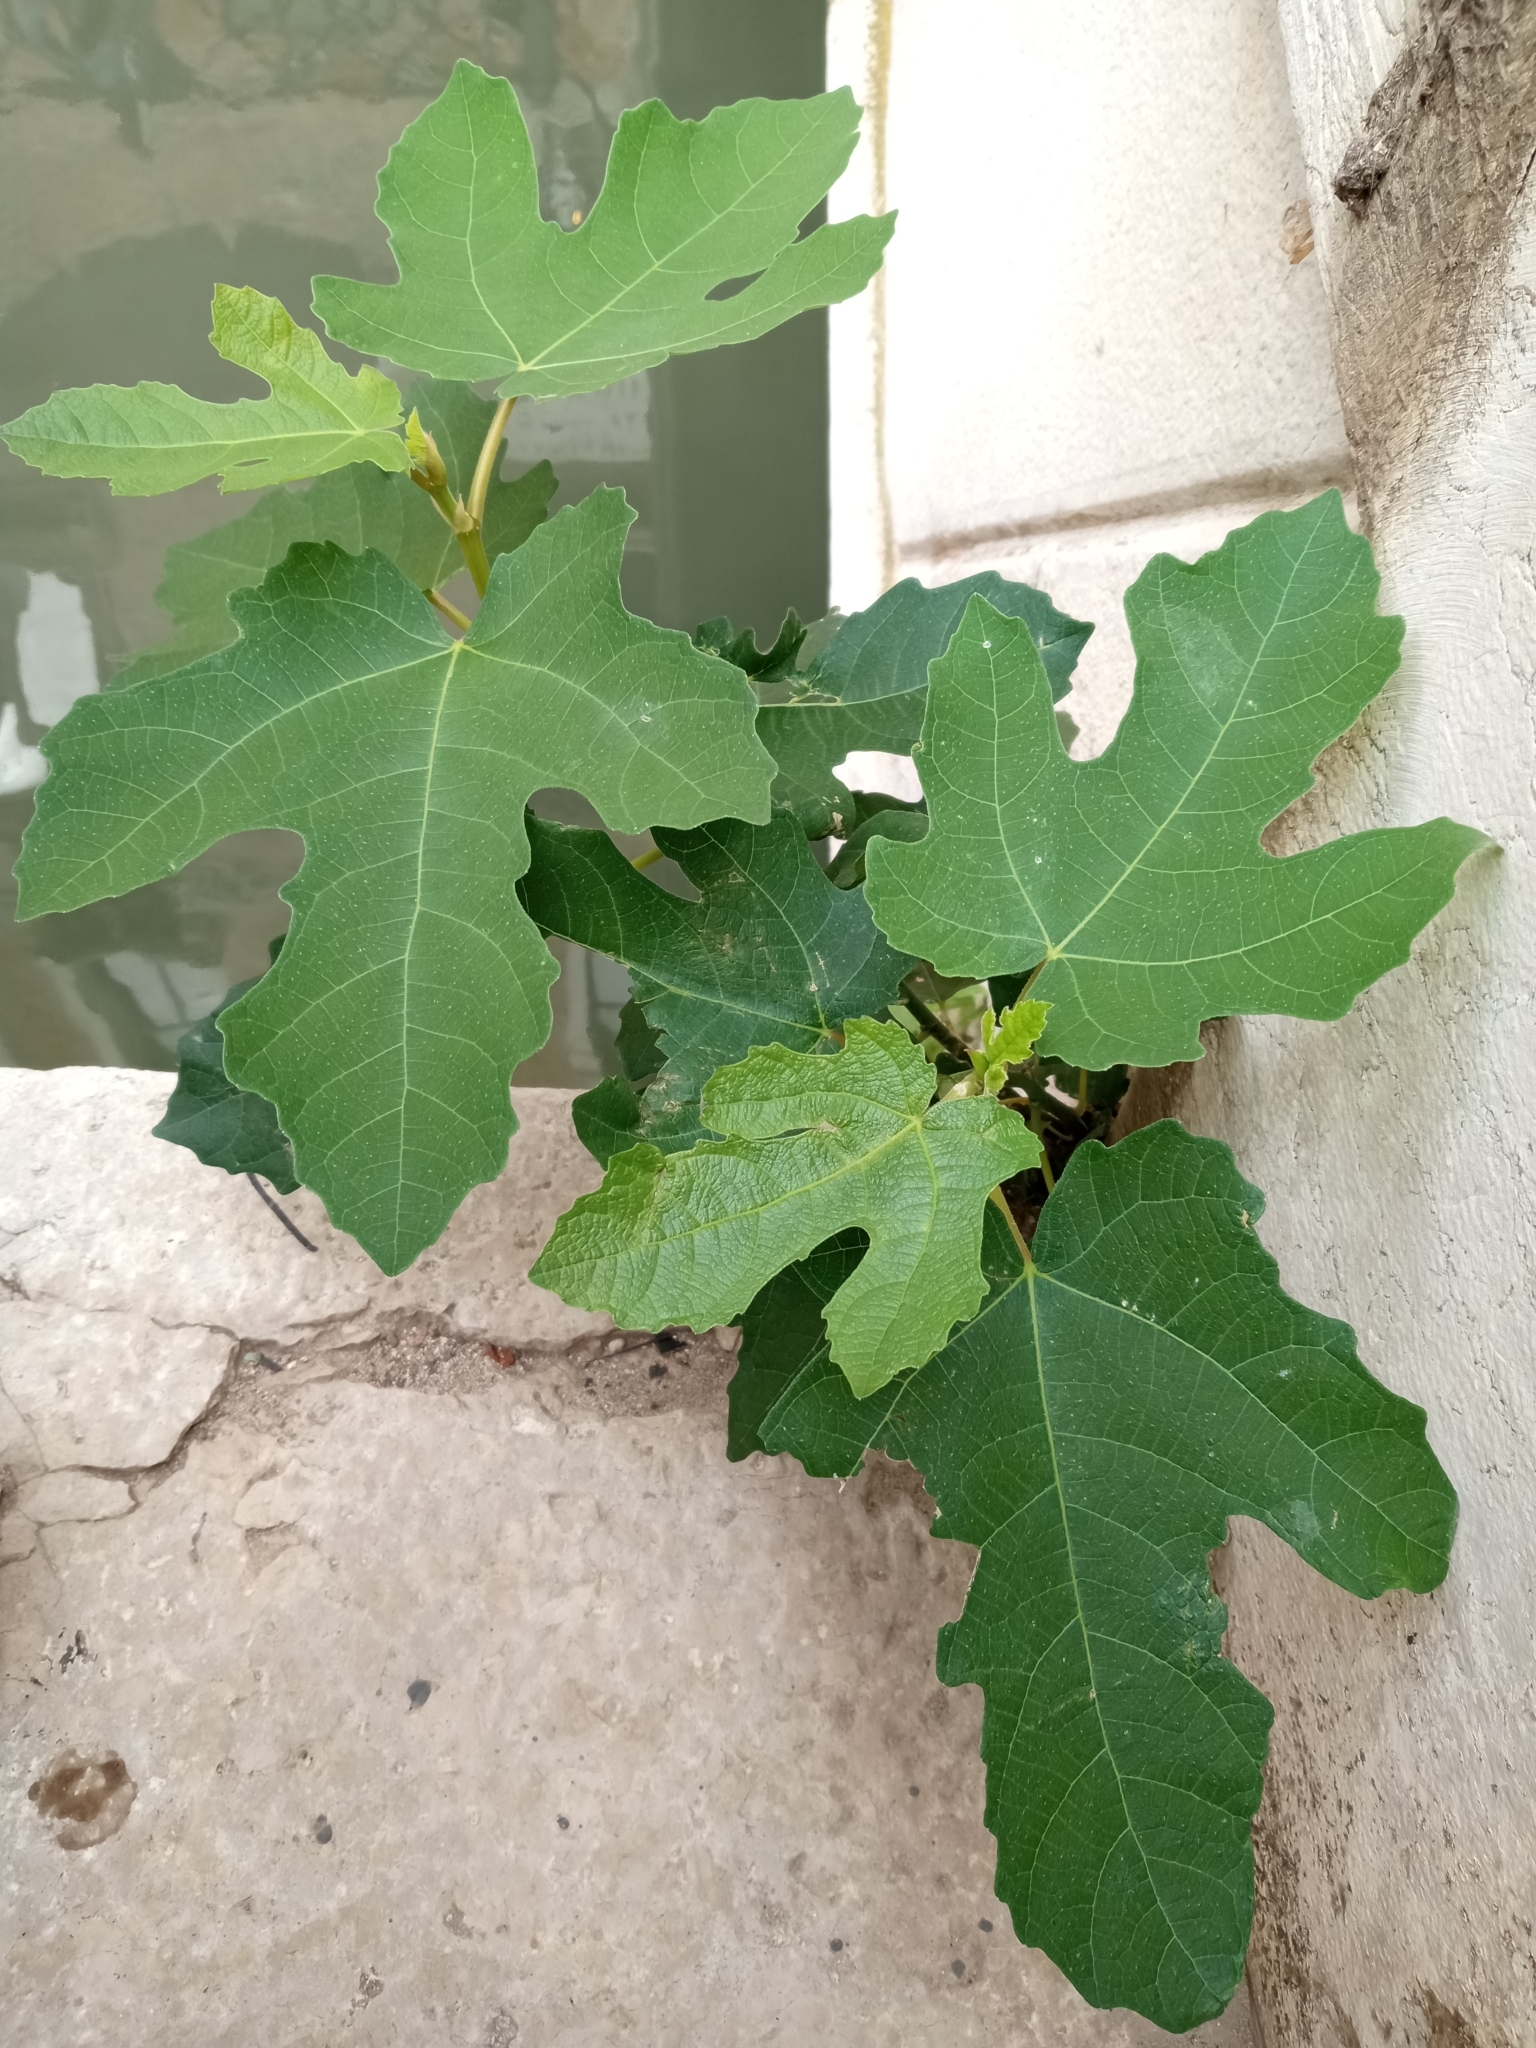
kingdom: Plantae
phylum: Tracheophyta
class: Magnoliopsida
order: Rosales
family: Moraceae
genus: Ficus
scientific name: Ficus carica
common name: Fig
